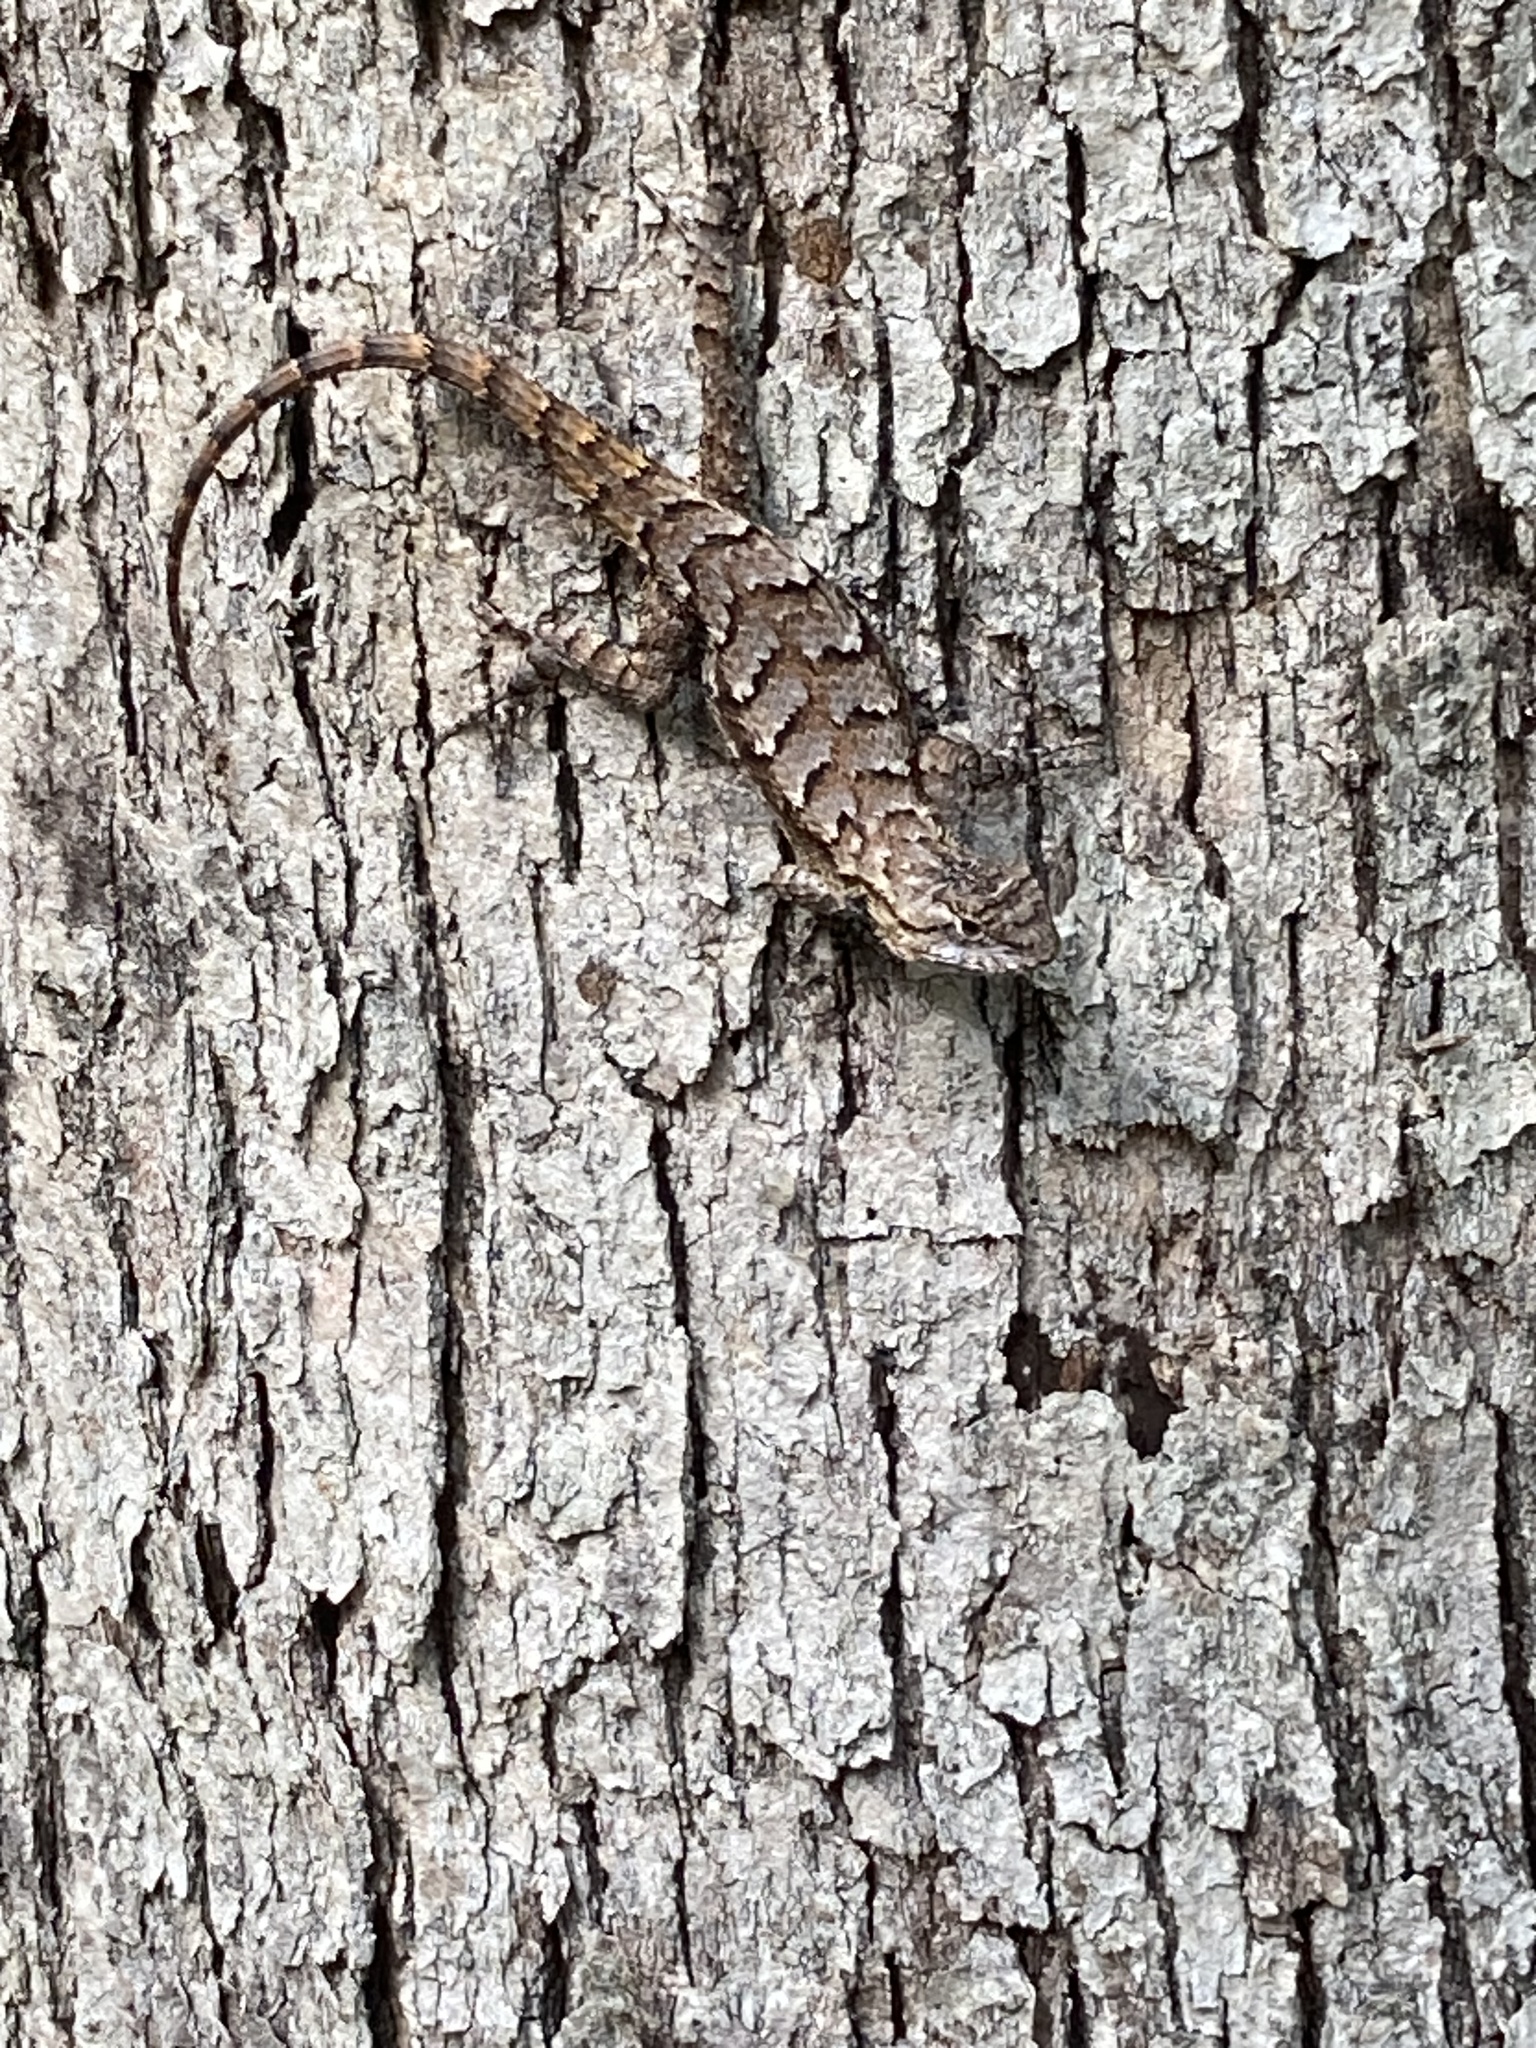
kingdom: Animalia
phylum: Chordata
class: Squamata
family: Phrynosomatidae
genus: Sceloporus
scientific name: Sceloporus undulatus
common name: Eastern fence lizard
